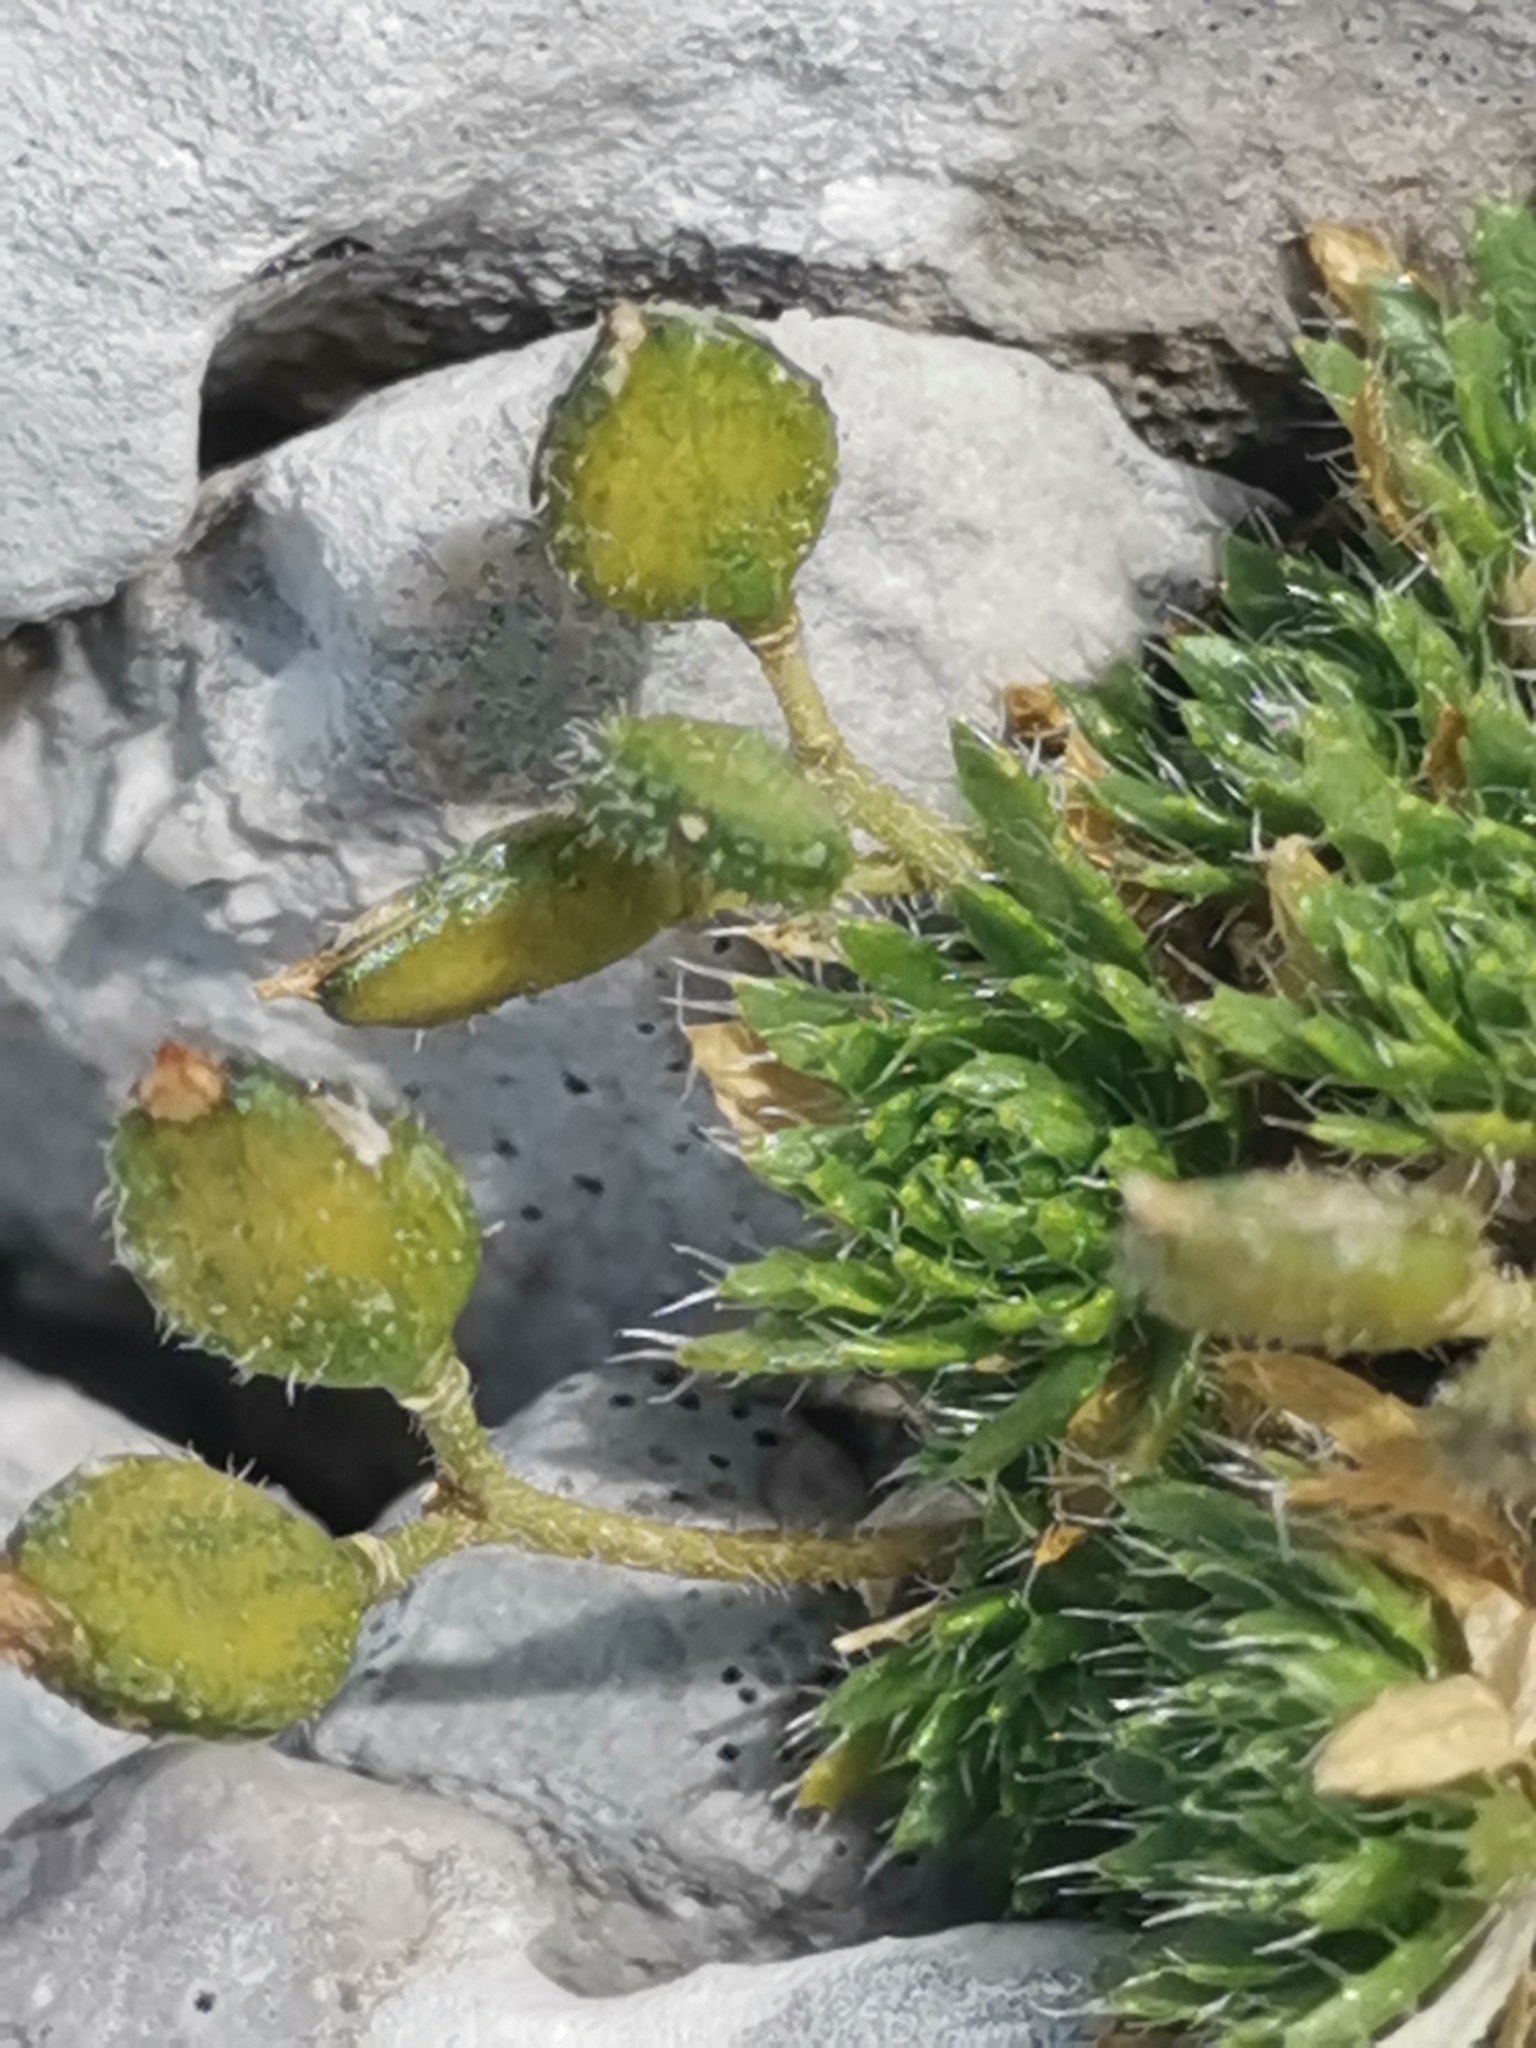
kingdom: Plantae
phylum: Tracheophyta
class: Magnoliopsida
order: Brassicales
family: Brassicaceae
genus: Draba
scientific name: Draba aspera
